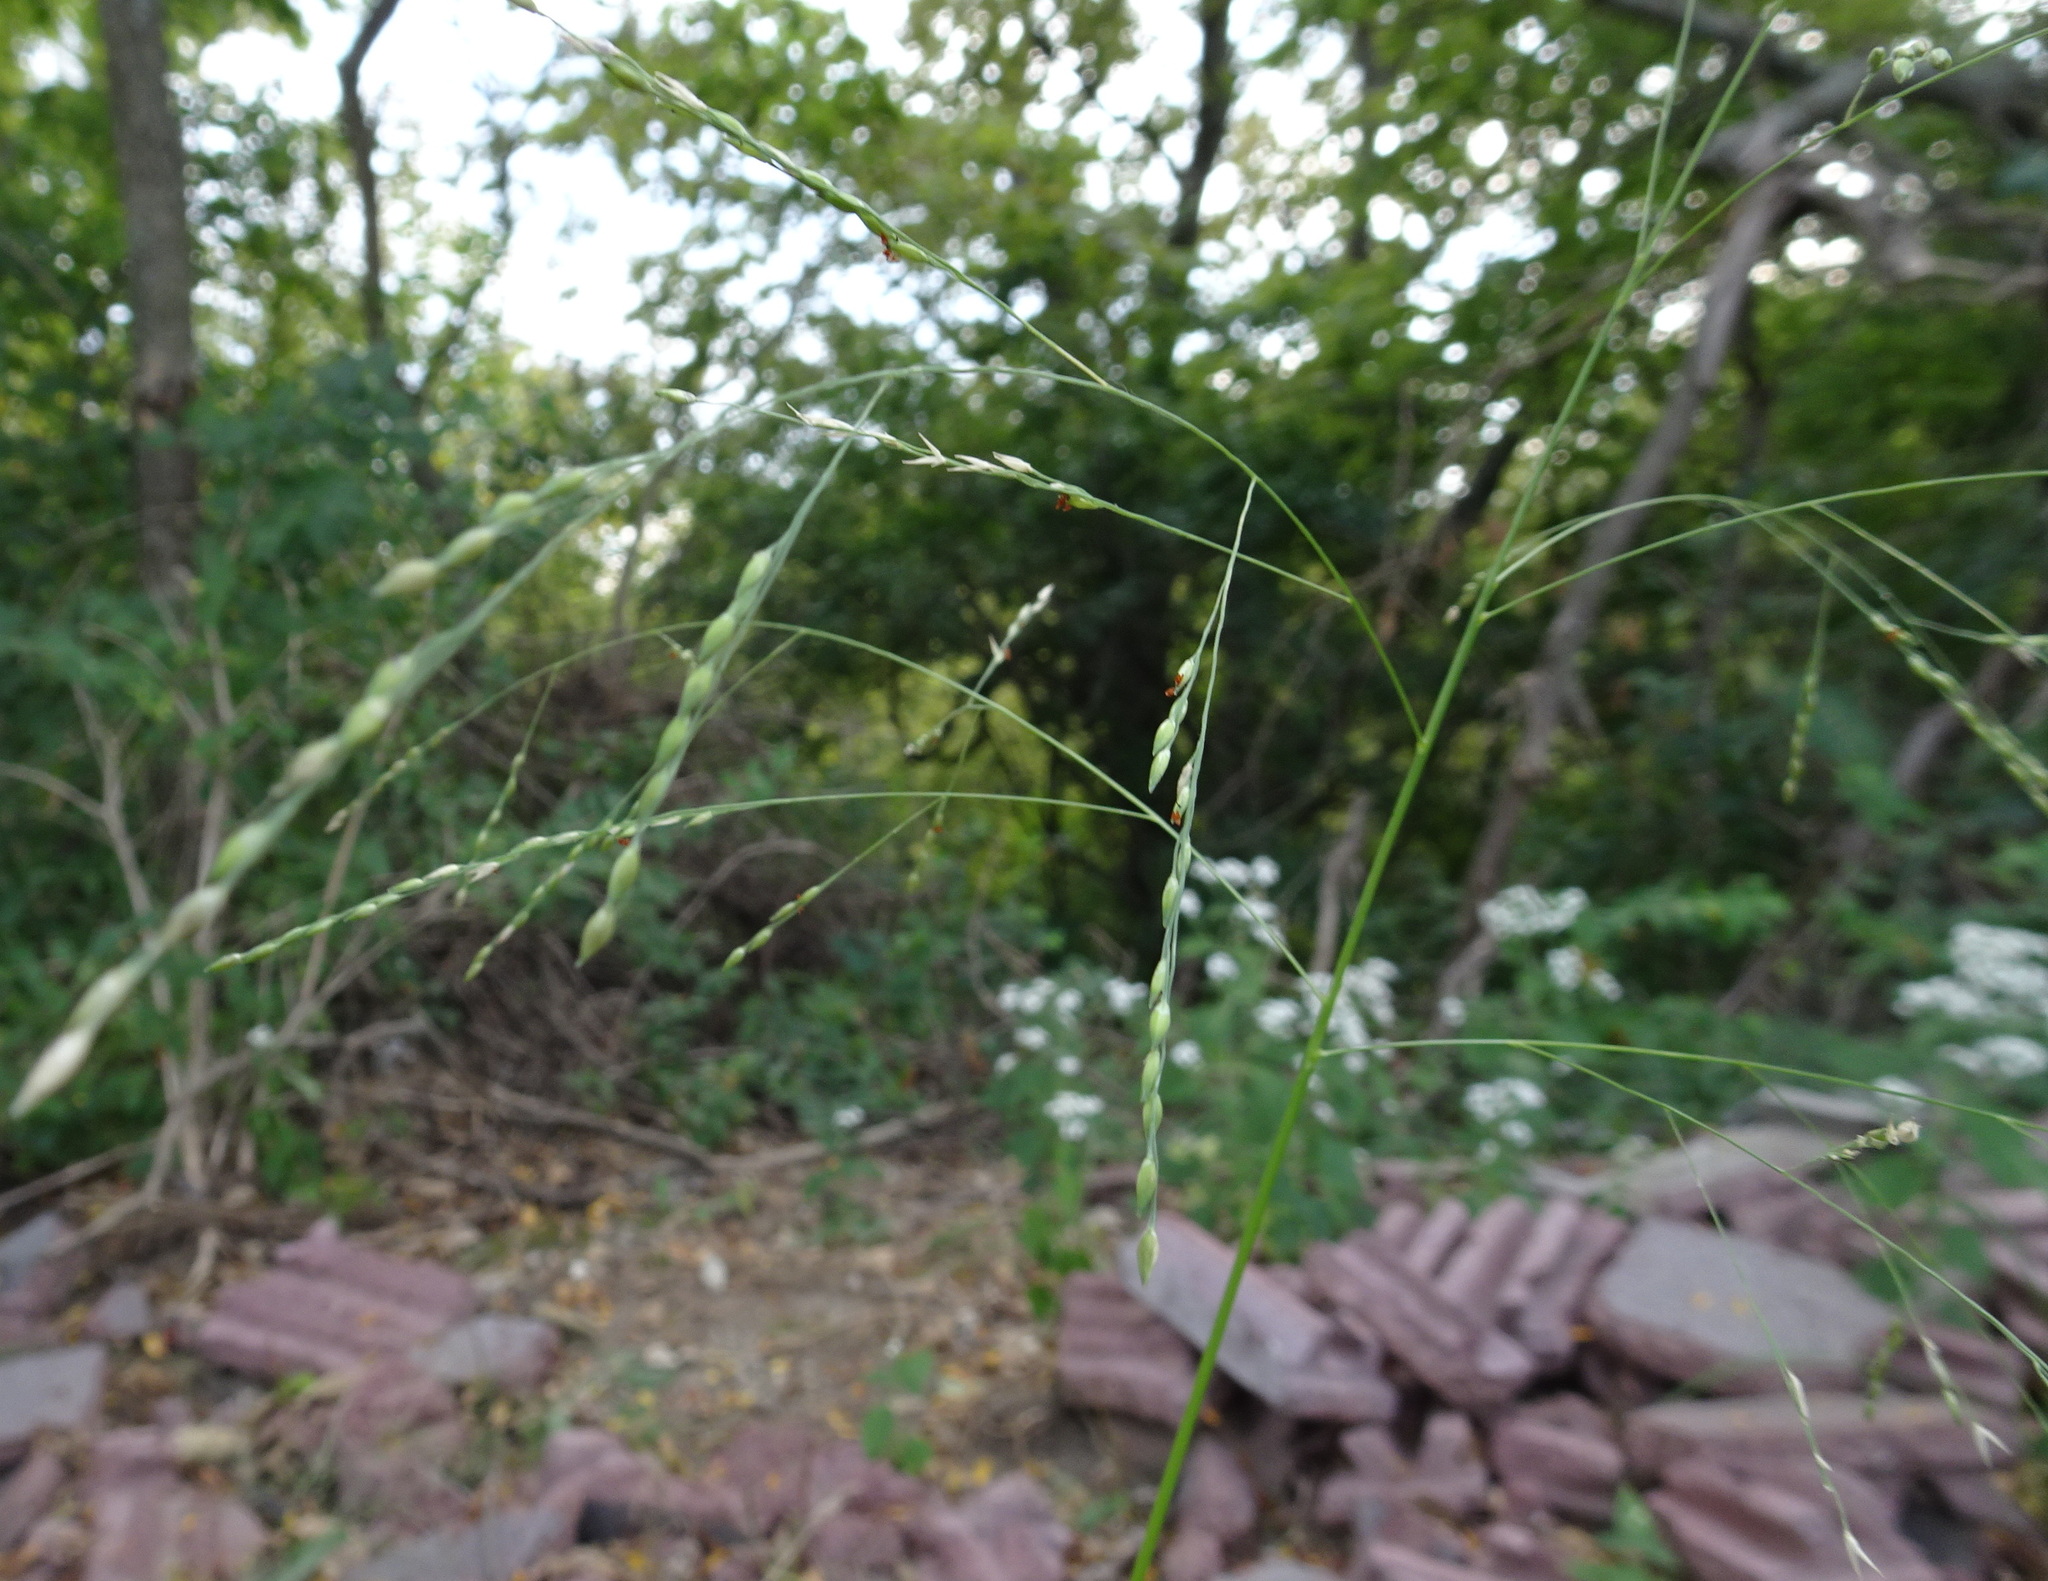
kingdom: Plantae
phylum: Tracheophyta
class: Liliopsida
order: Poales
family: Poaceae
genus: Panicum
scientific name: Panicum dichotomiflorum
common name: Autumn millet
